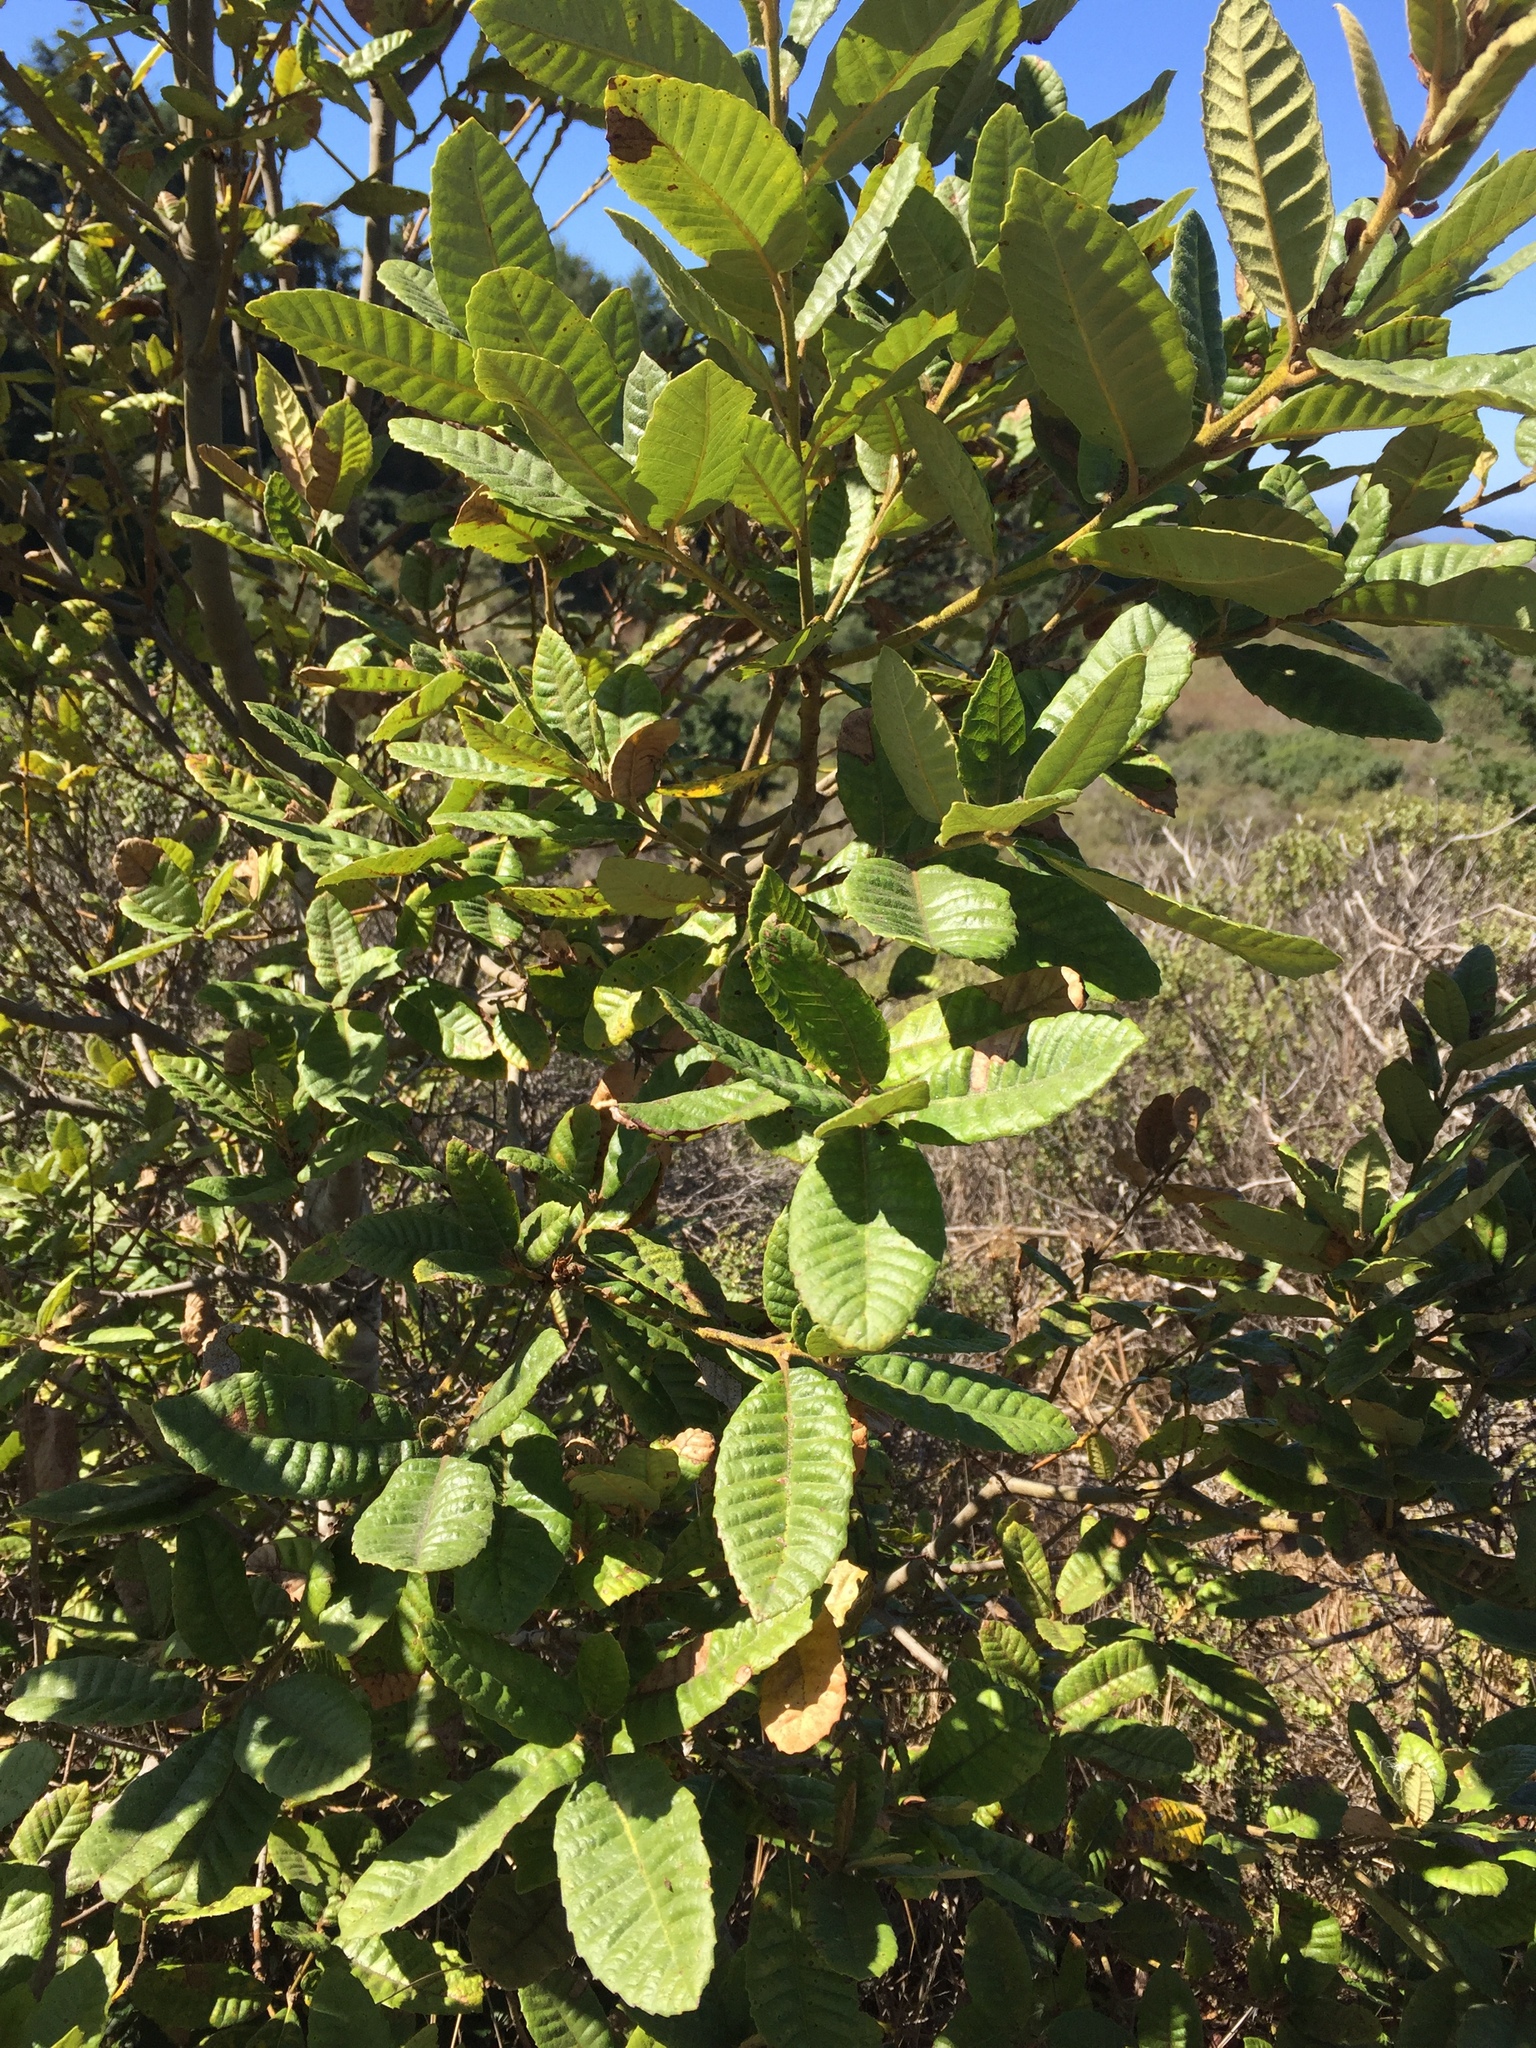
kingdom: Plantae
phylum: Tracheophyta
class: Magnoliopsida
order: Fagales
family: Fagaceae
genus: Notholithocarpus
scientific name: Notholithocarpus densiflorus
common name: Tan bark oak
